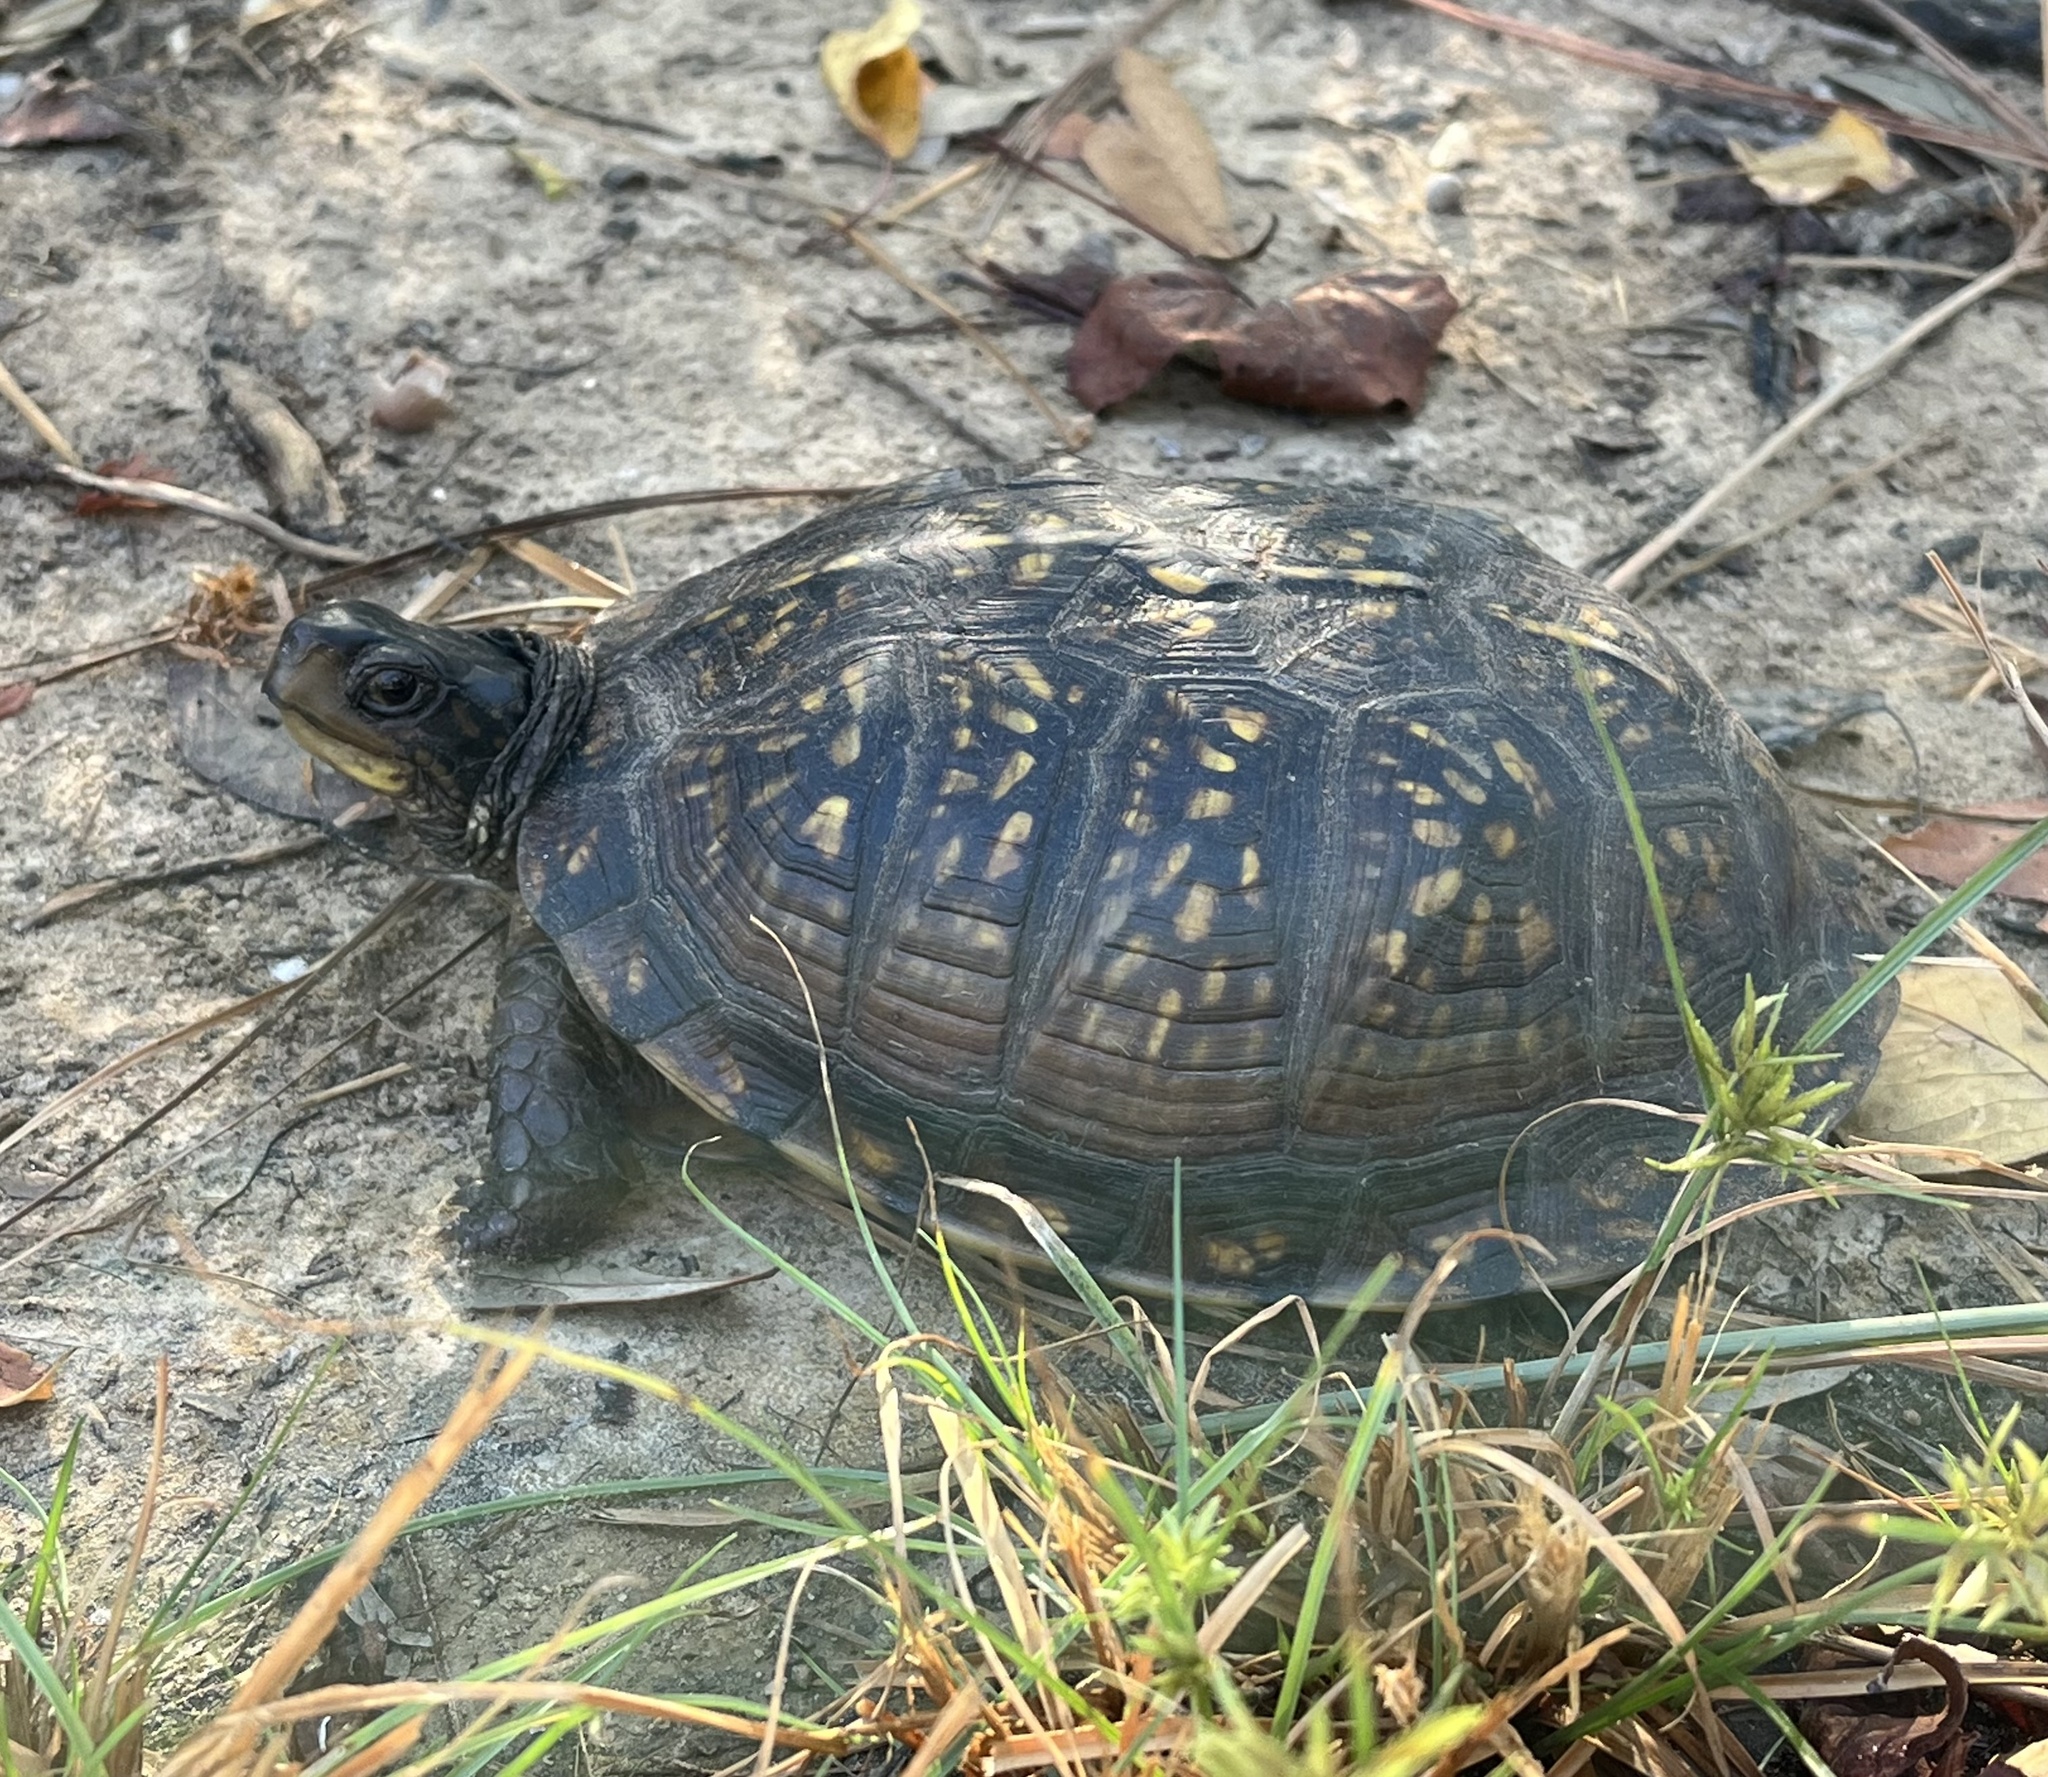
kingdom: Animalia
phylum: Chordata
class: Testudines
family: Emydidae
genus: Terrapene
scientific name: Terrapene carolina
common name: Common box turtle
